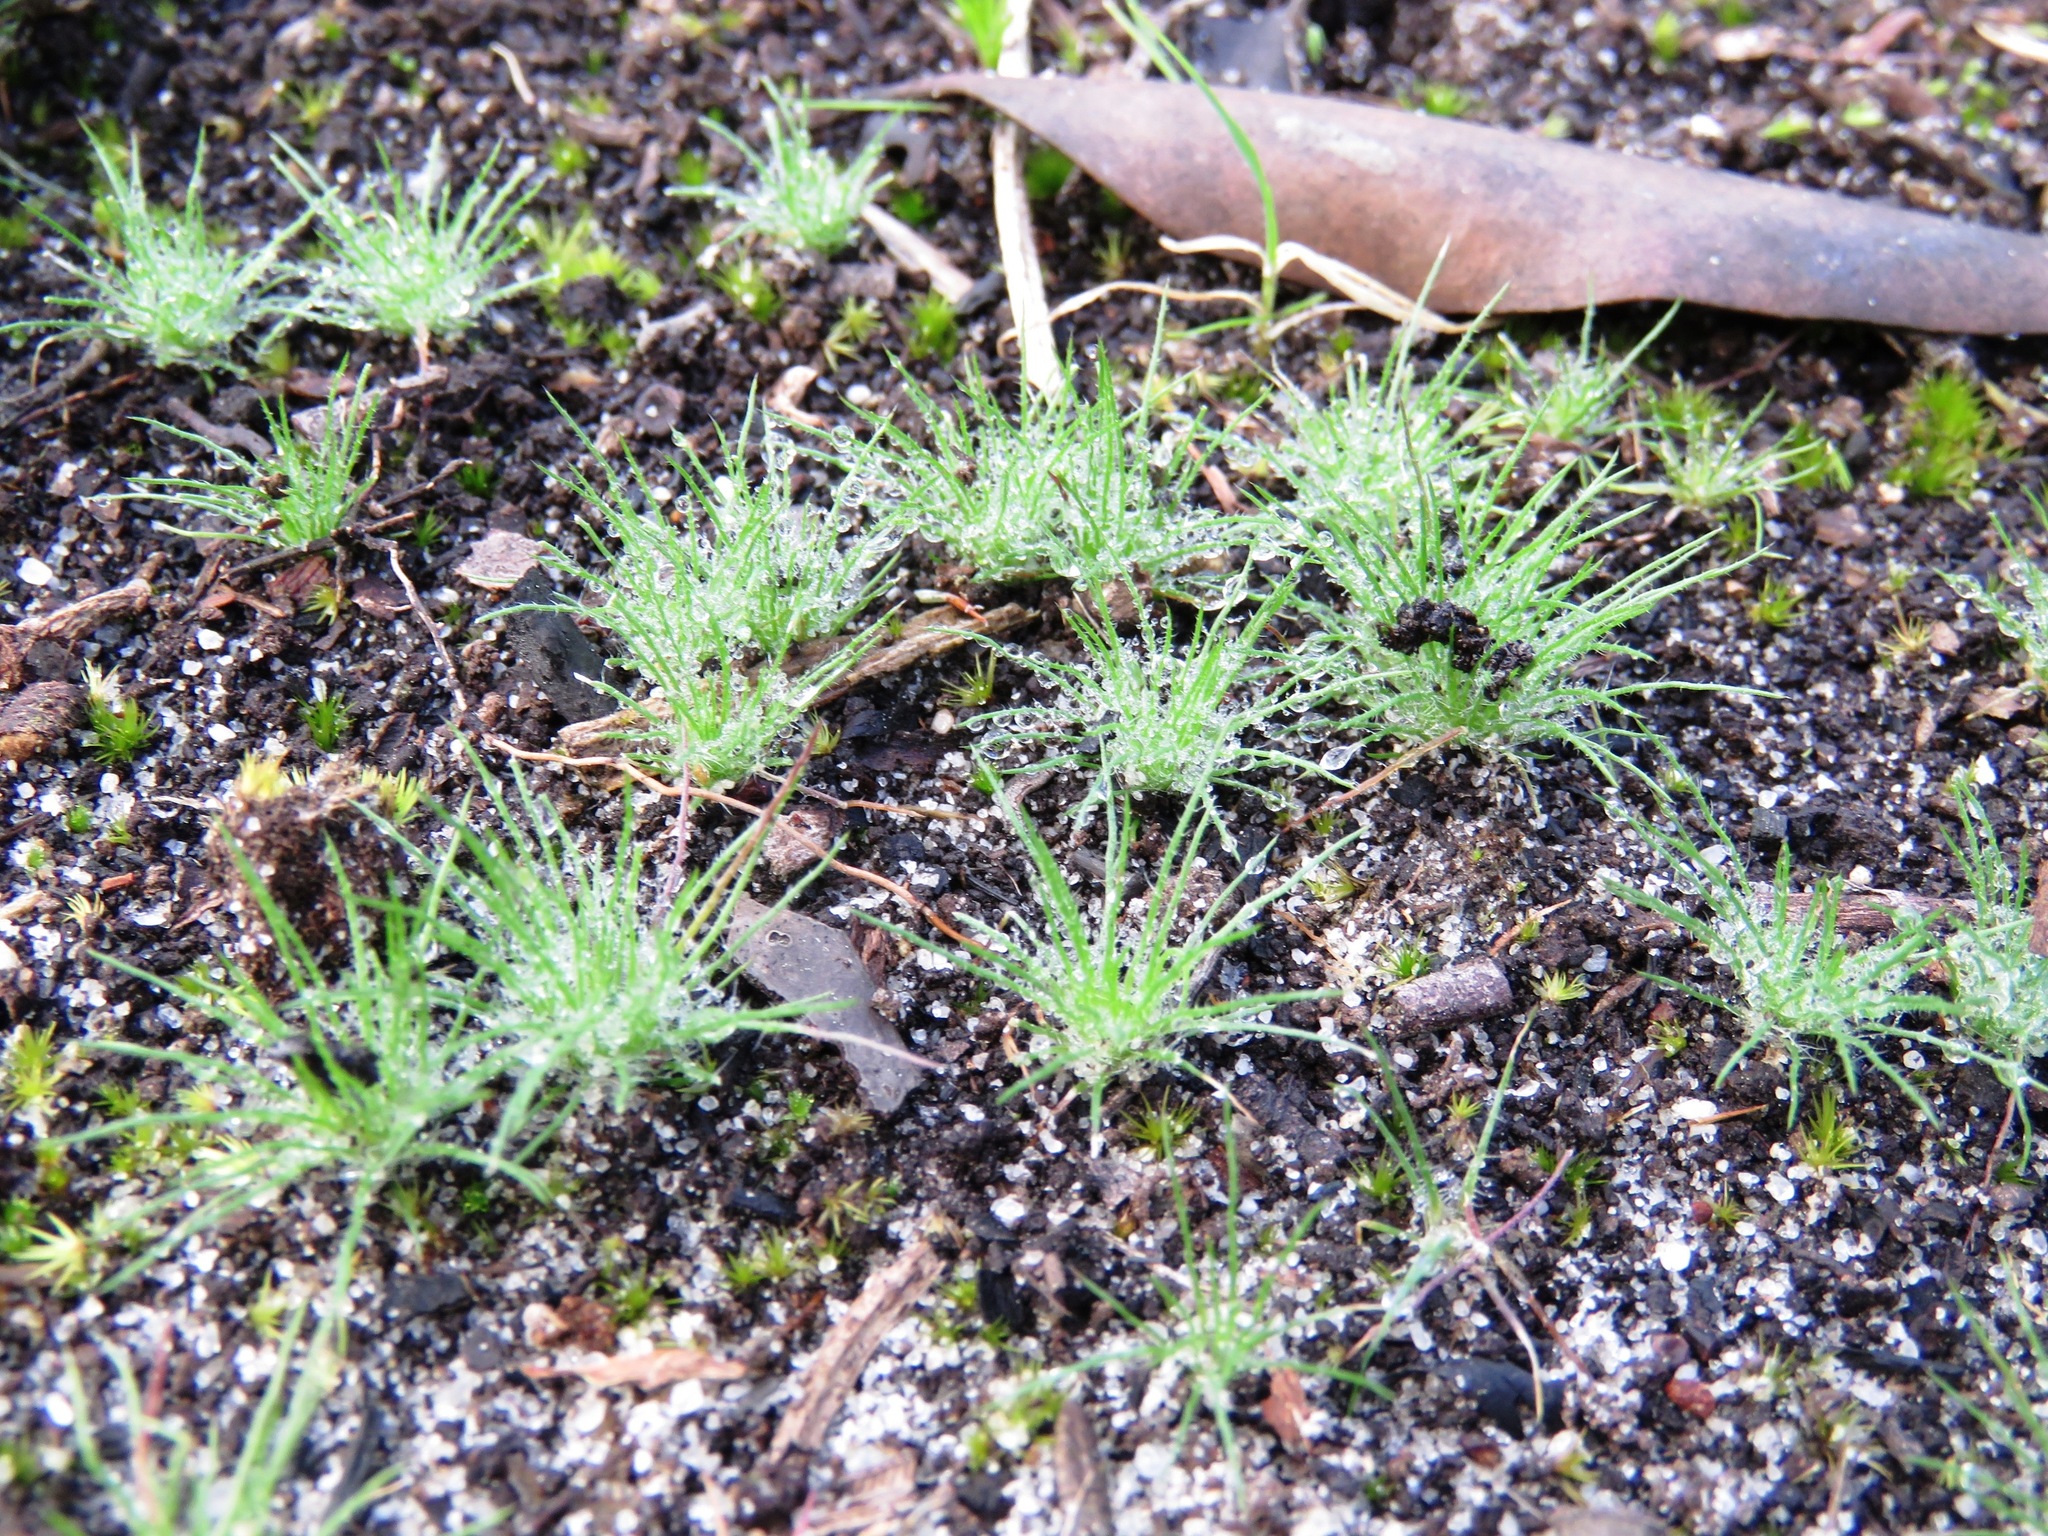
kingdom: Plantae
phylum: Tracheophyta
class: Liliopsida
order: Poales
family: Restionaceae
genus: Centrolepis
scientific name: Centrolepis strigosa
